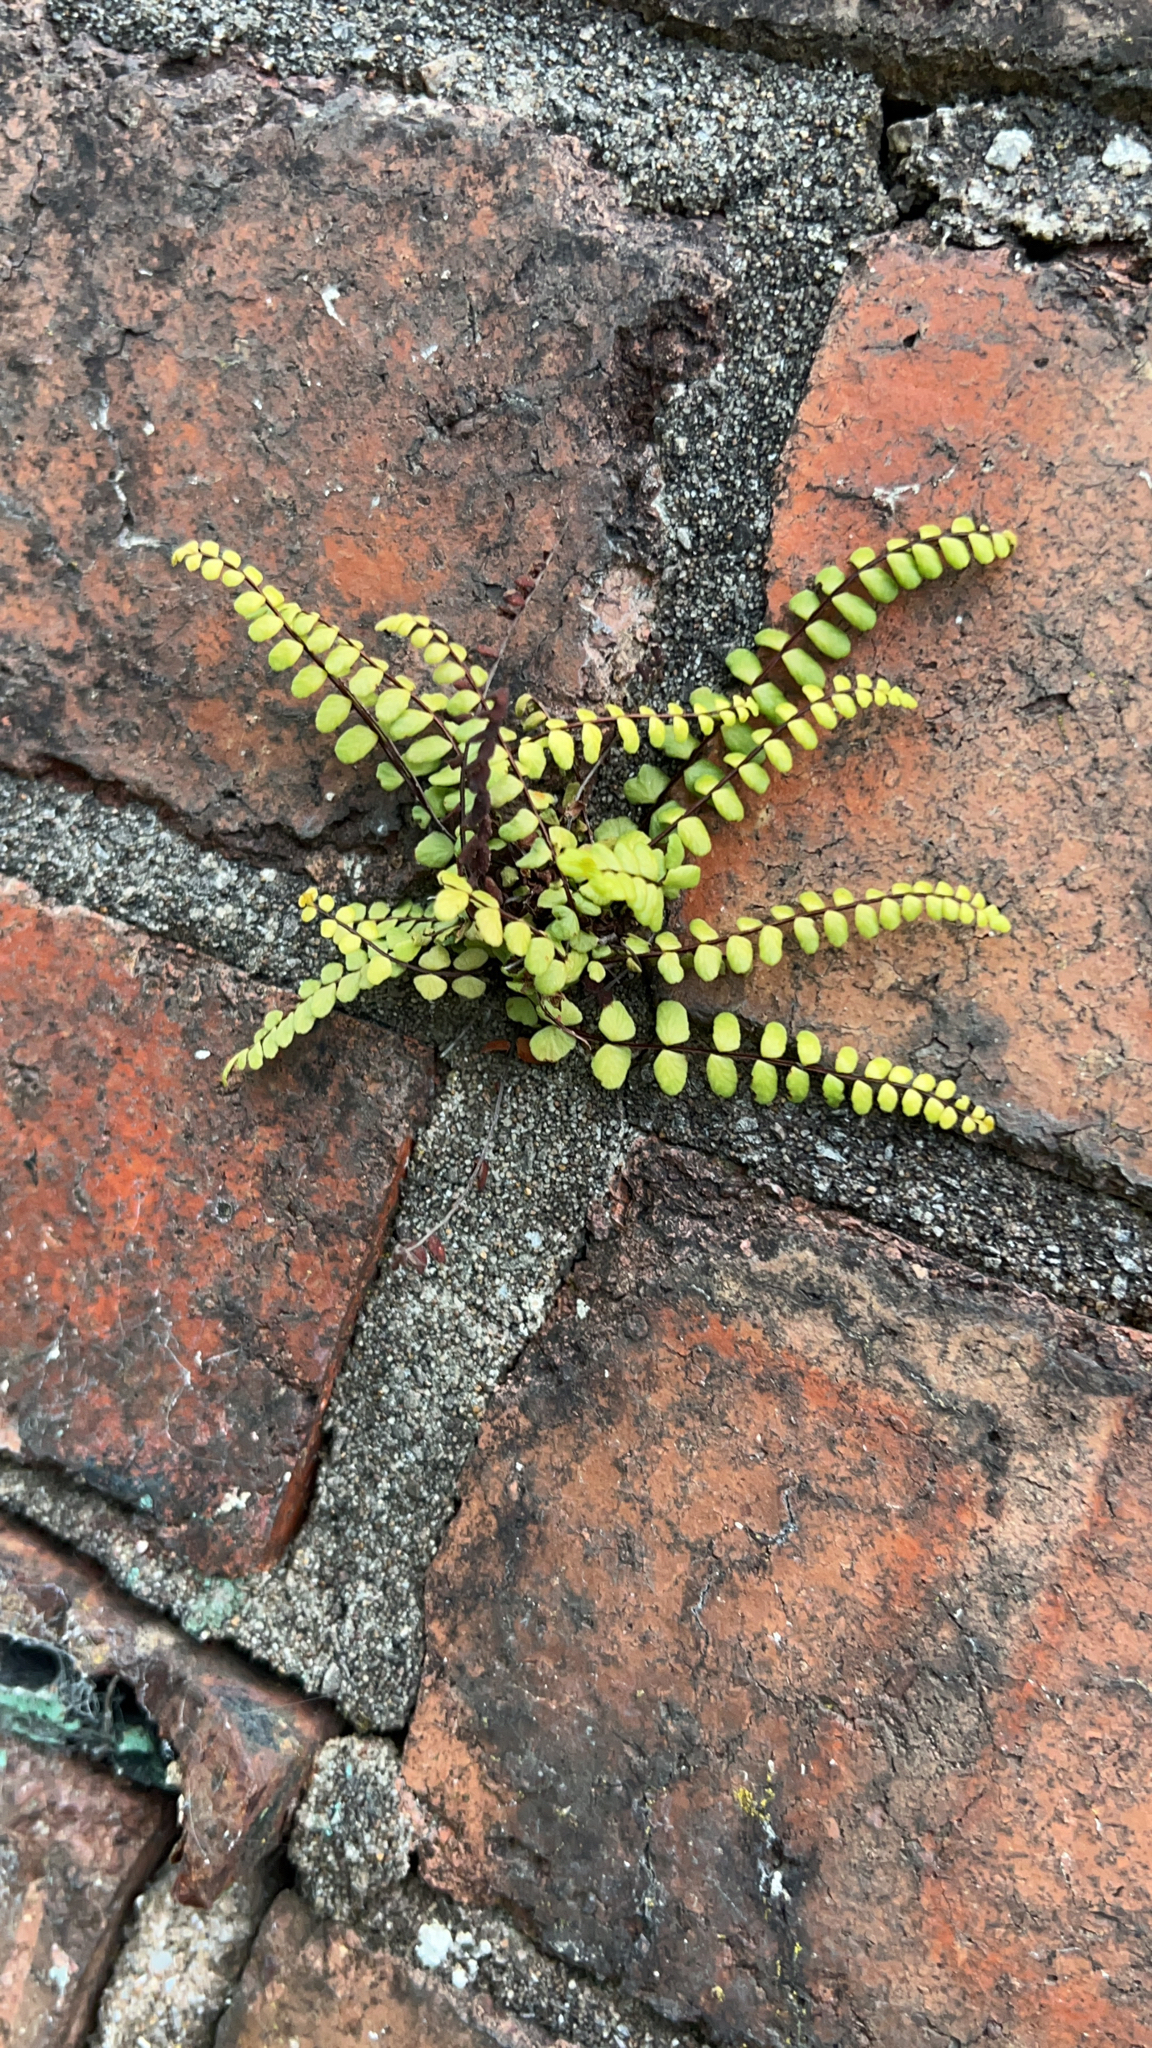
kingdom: Plantae
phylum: Tracheophyta
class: Polypodiopsida
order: Polypodiales
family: Aspleniaceae
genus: Asplenium
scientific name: Asplenium trichomanes
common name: Maidenhair spleenwort
